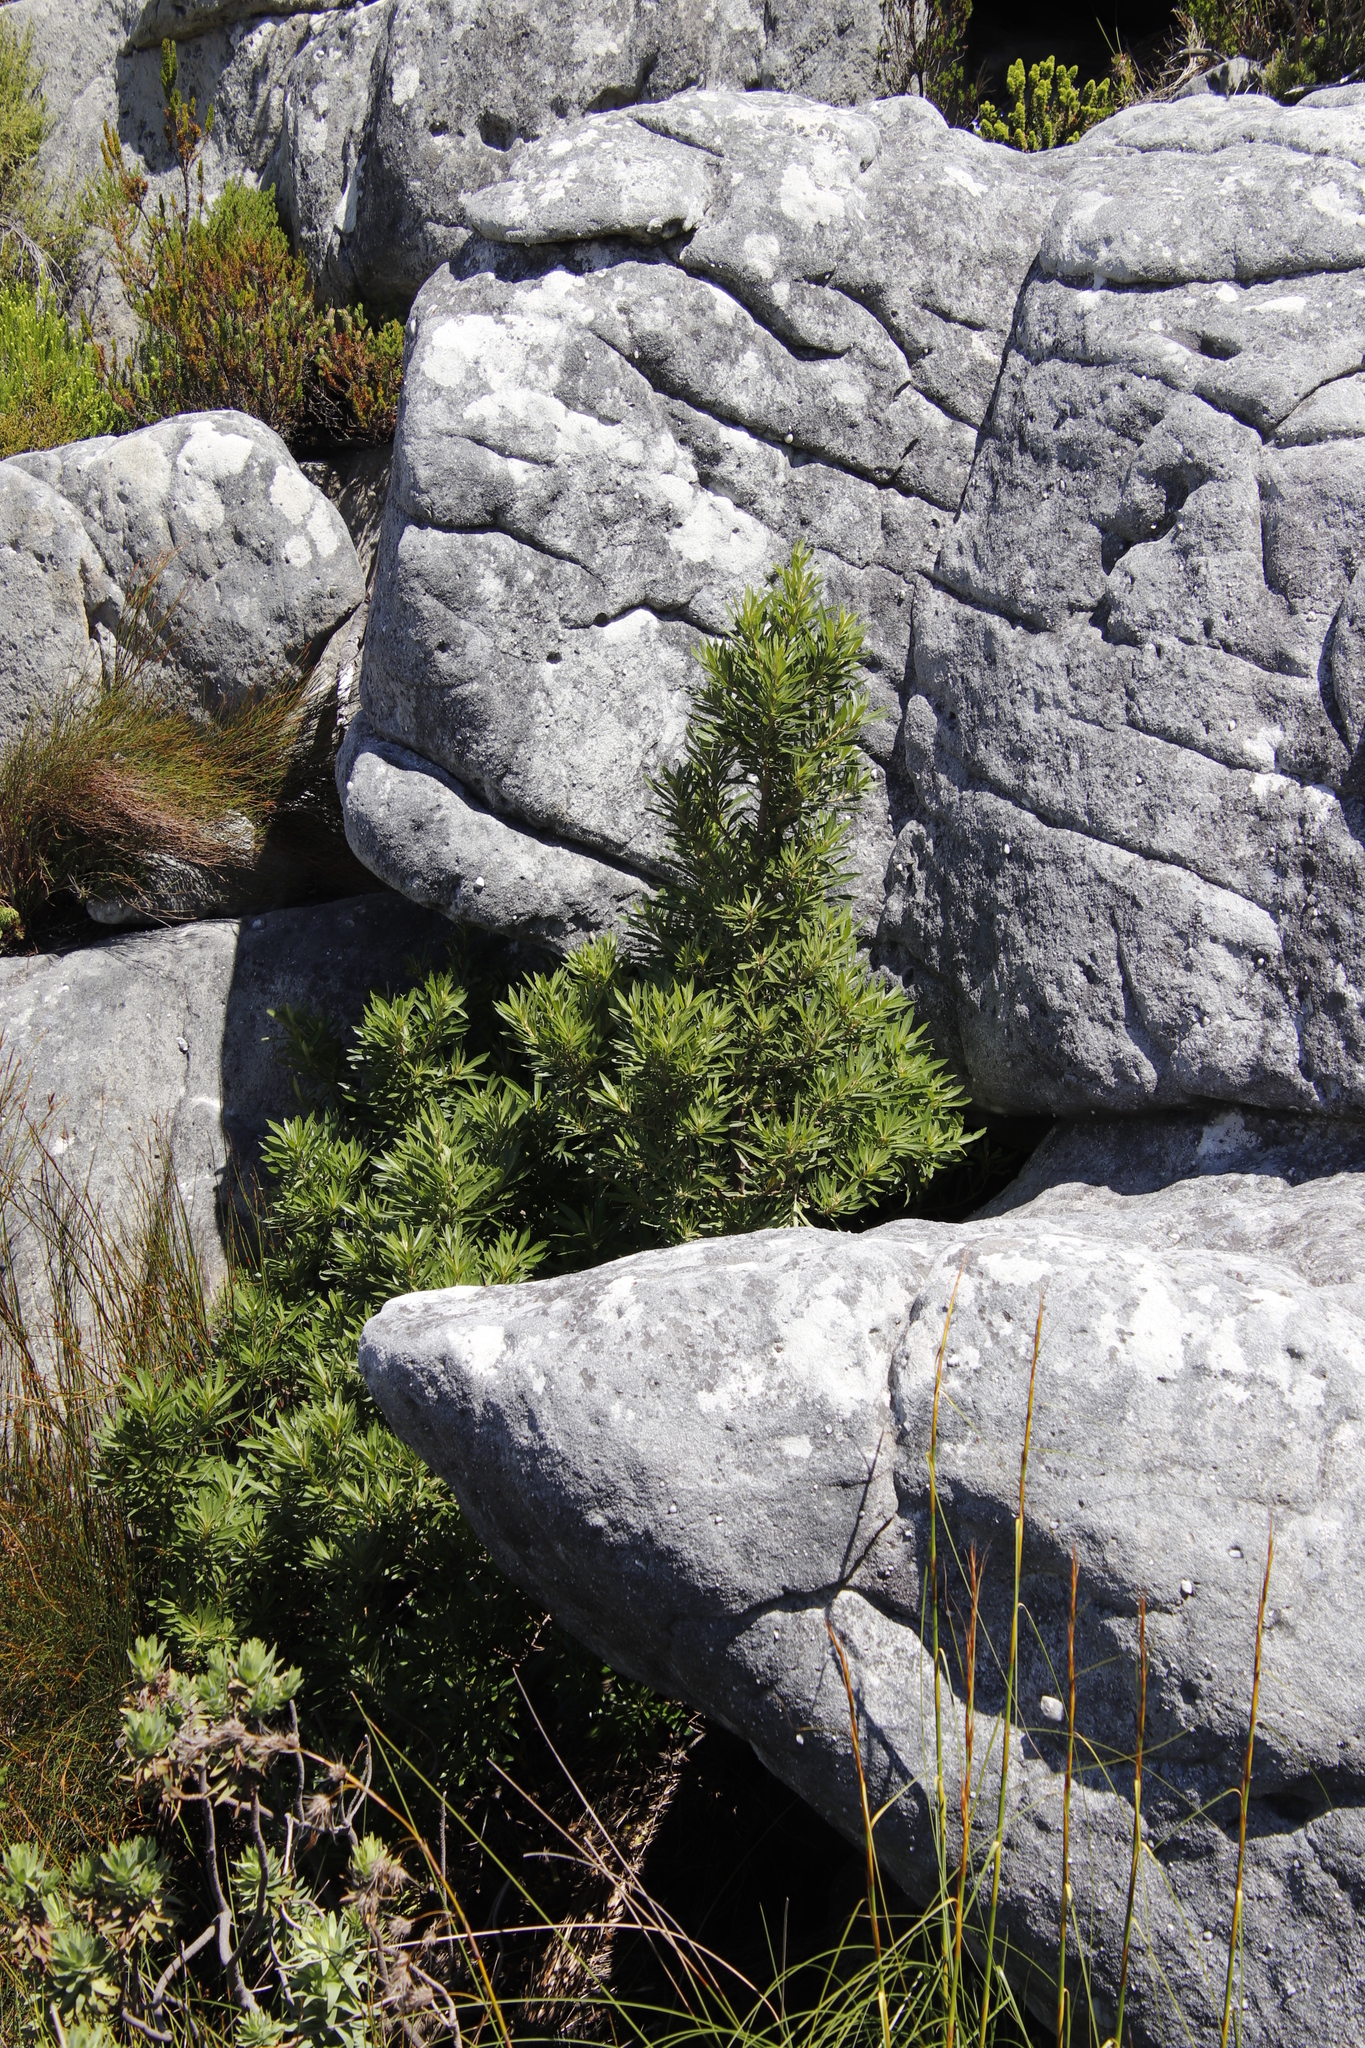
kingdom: Plantae
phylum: Tracheophyta
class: Magnoliopsida
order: Asterales
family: Asteraceae
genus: Brachylaena
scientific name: Brachylaena neriifolia
